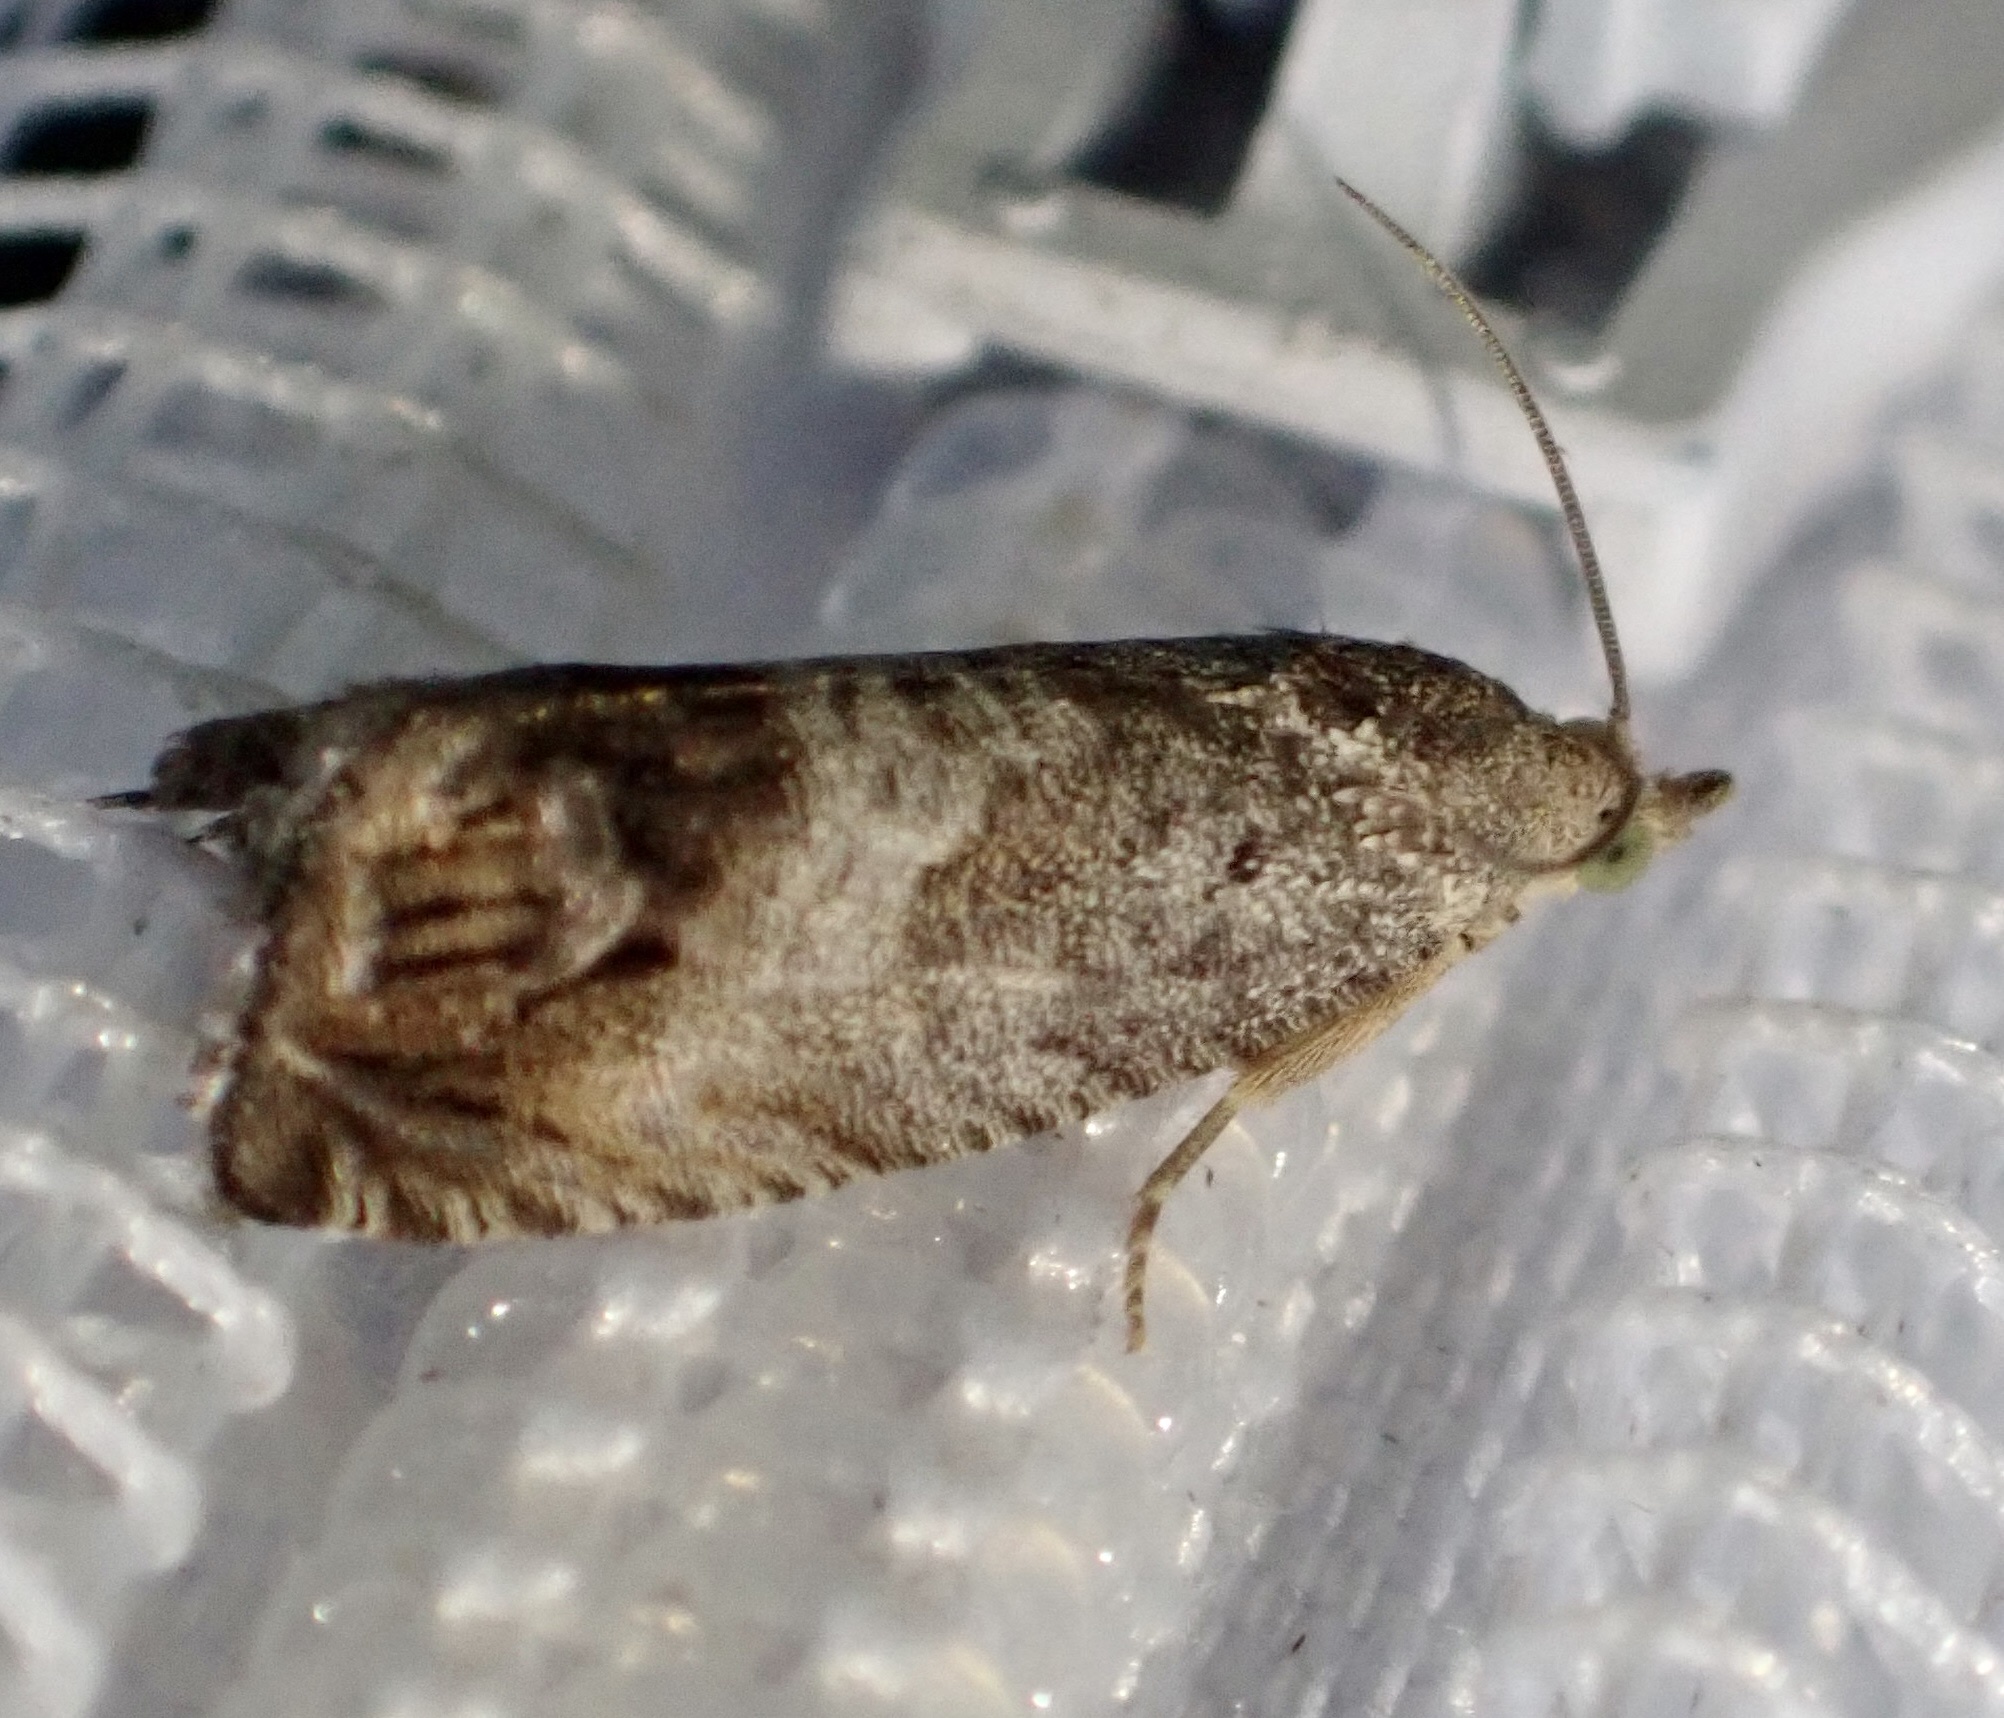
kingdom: Animalia
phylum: Arthropoda
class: Insecta
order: Lepidoptera
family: Tortricidae
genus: Cydia
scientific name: Cydia splendana
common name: De: kastanienwickler, eichenwickler es: oruga de la castaña fr: carpocapse des châtaignes it: cidia o tortrice tardiva delle castagne pt: bichado das castanhas gb: acorn moth, chestnut fruit tortrix
